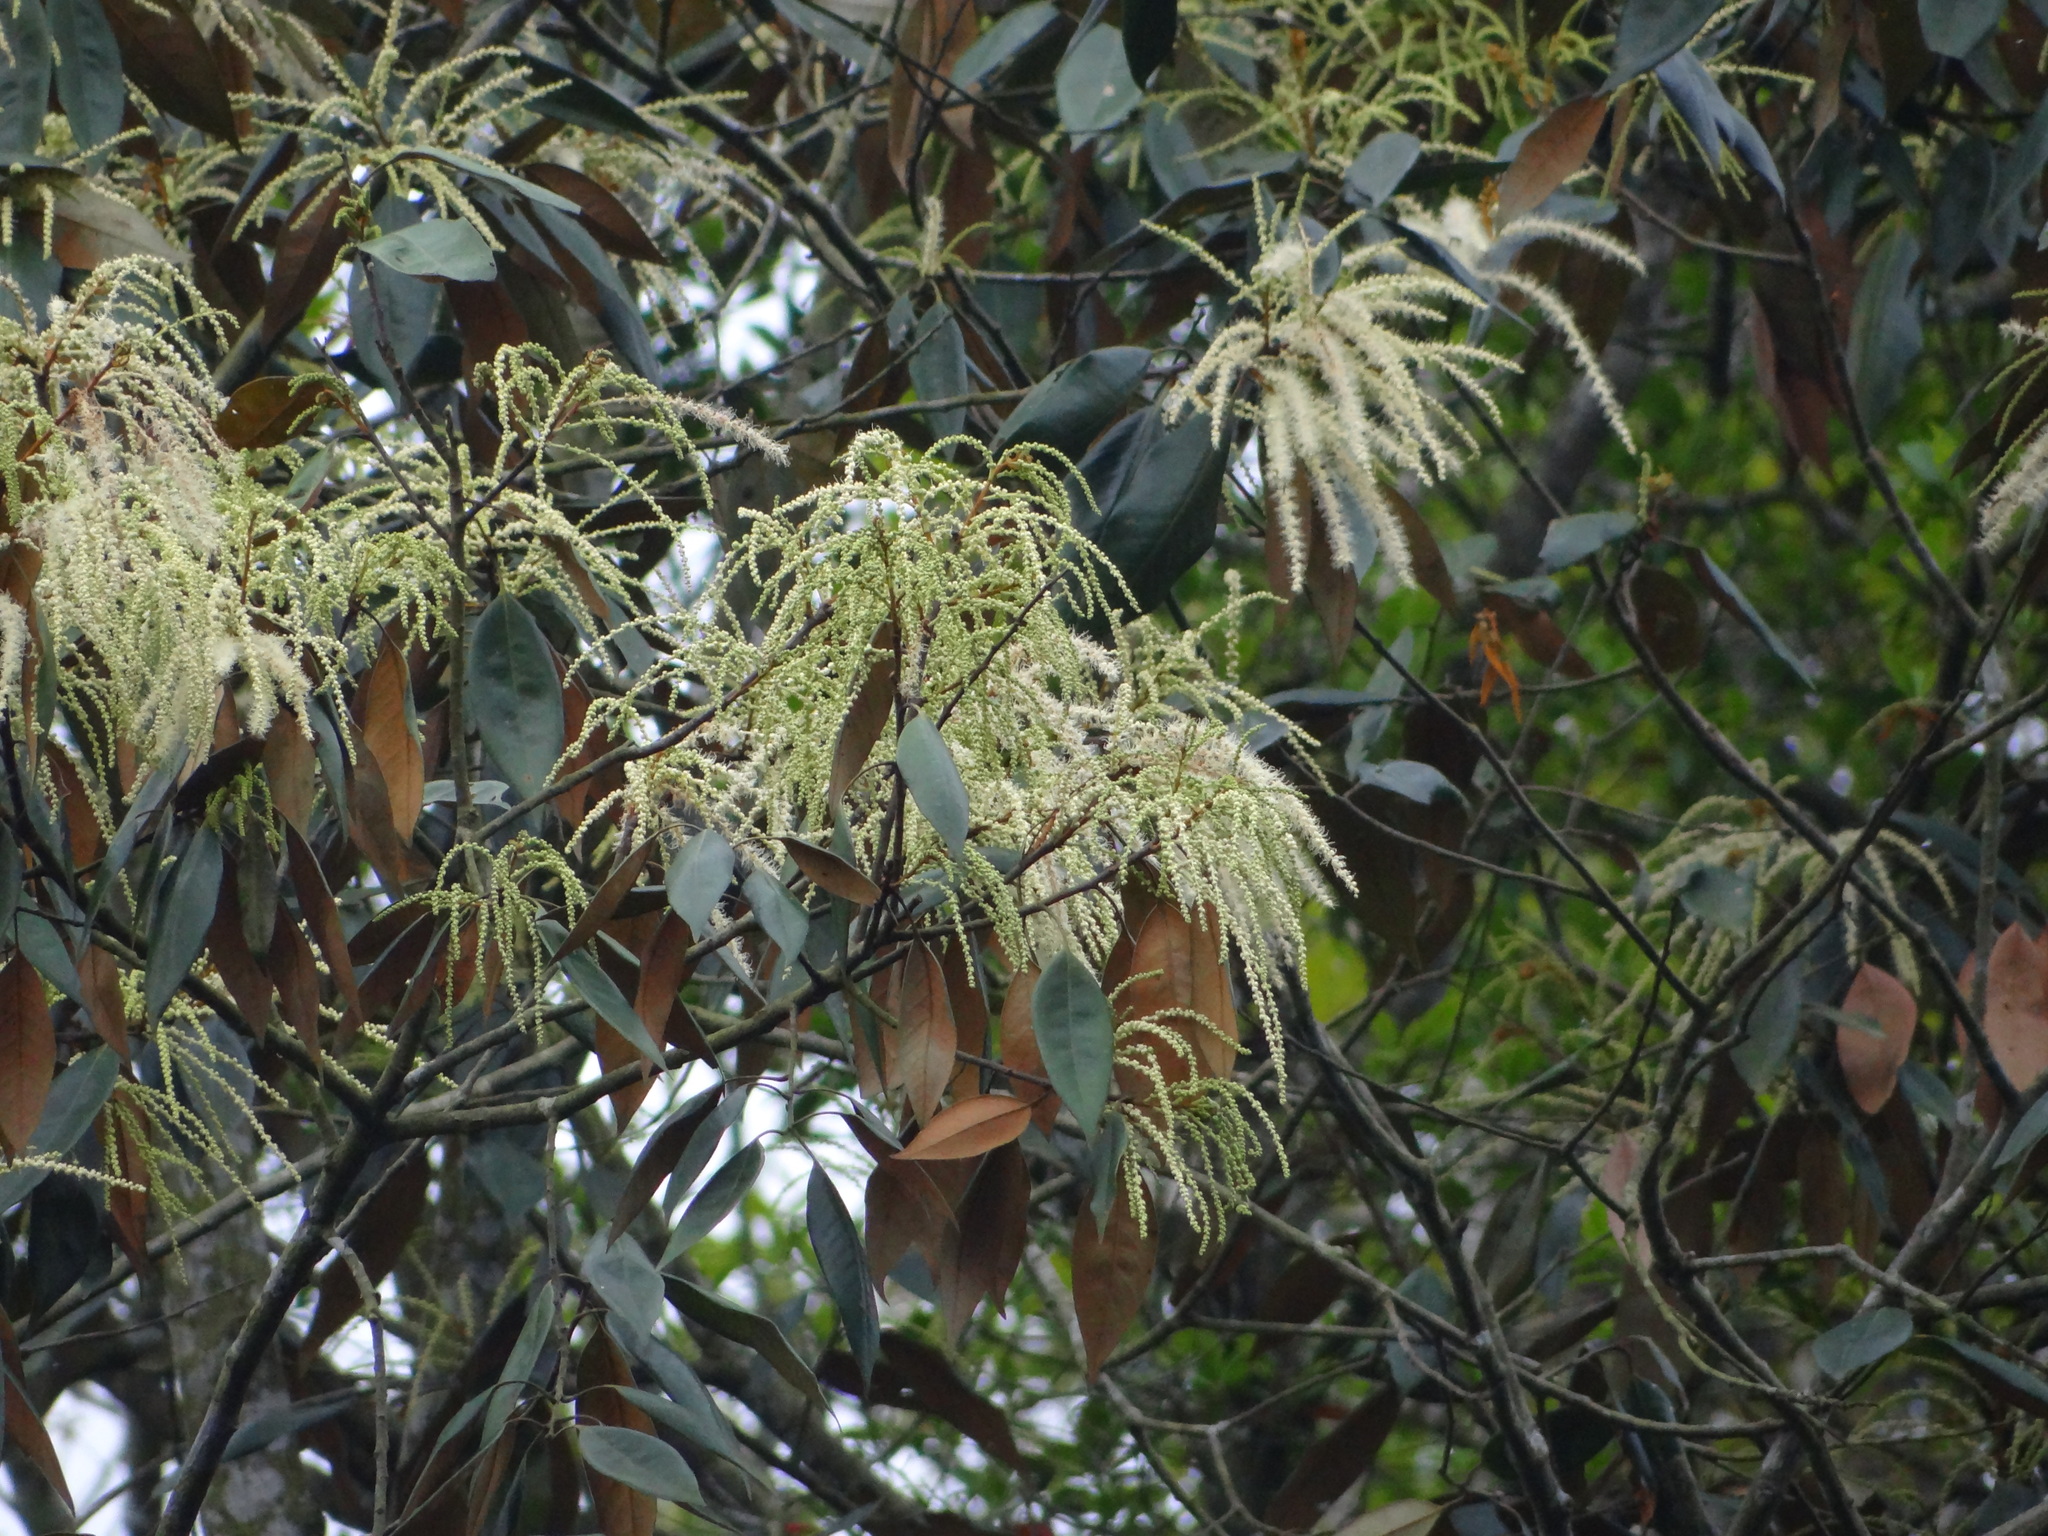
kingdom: Plantae
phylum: Tracheophyta
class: Magnoliopsida
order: Fagales
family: Fagaceae
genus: Castanopsis
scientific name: Castanopsis fargesii
